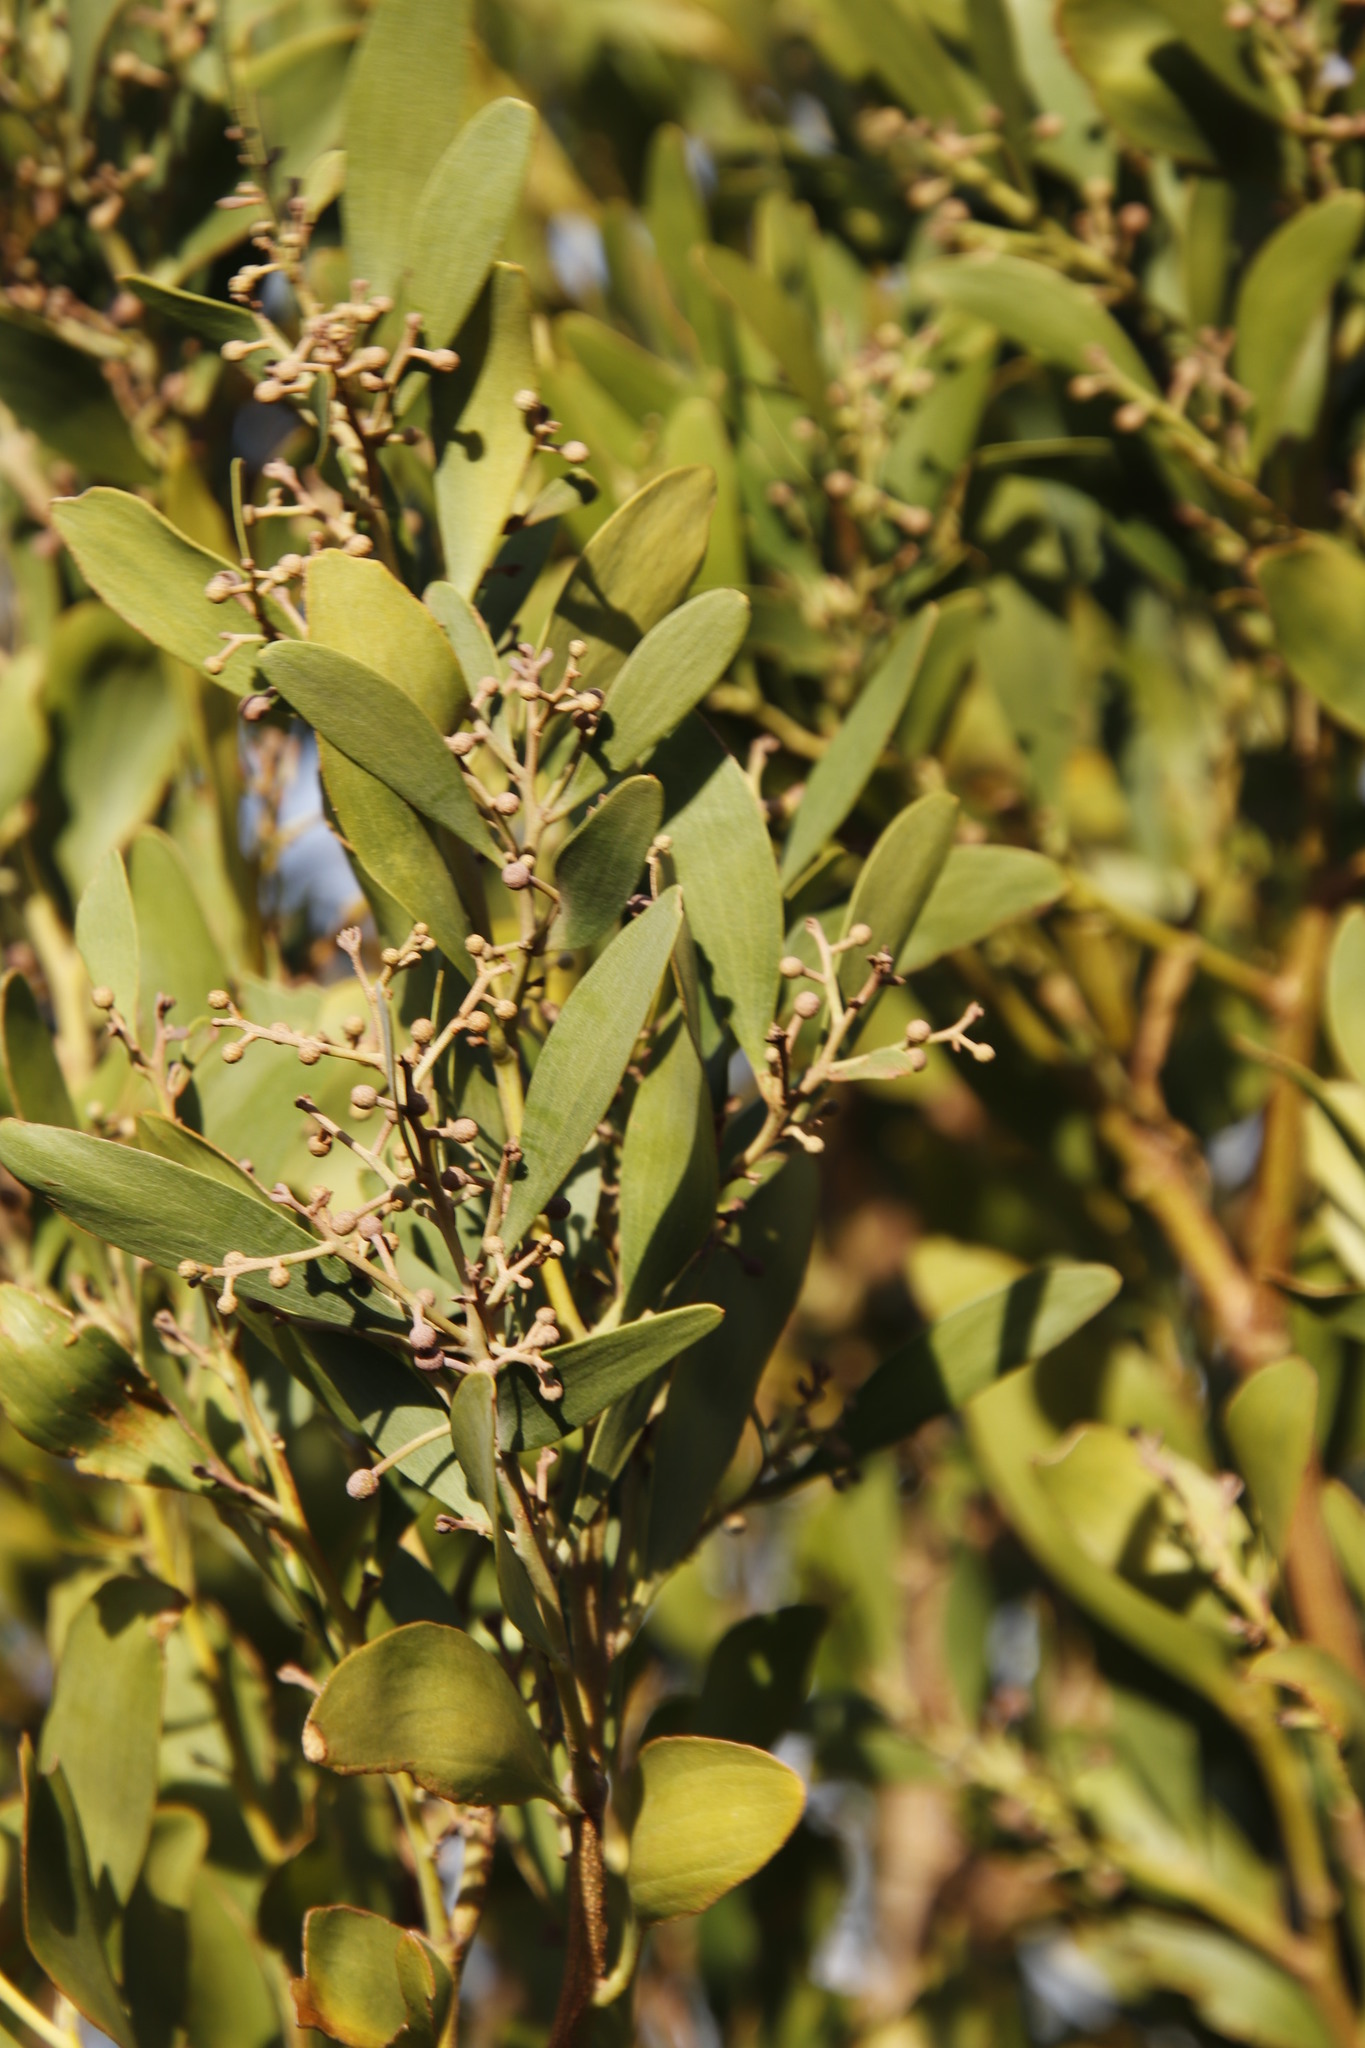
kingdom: Plantae
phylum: Tracheophyta
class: Magnoliopsida
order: Fabales
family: Fabaceae
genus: Acacia
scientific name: Acacia melanoxylon
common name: Blackwood
